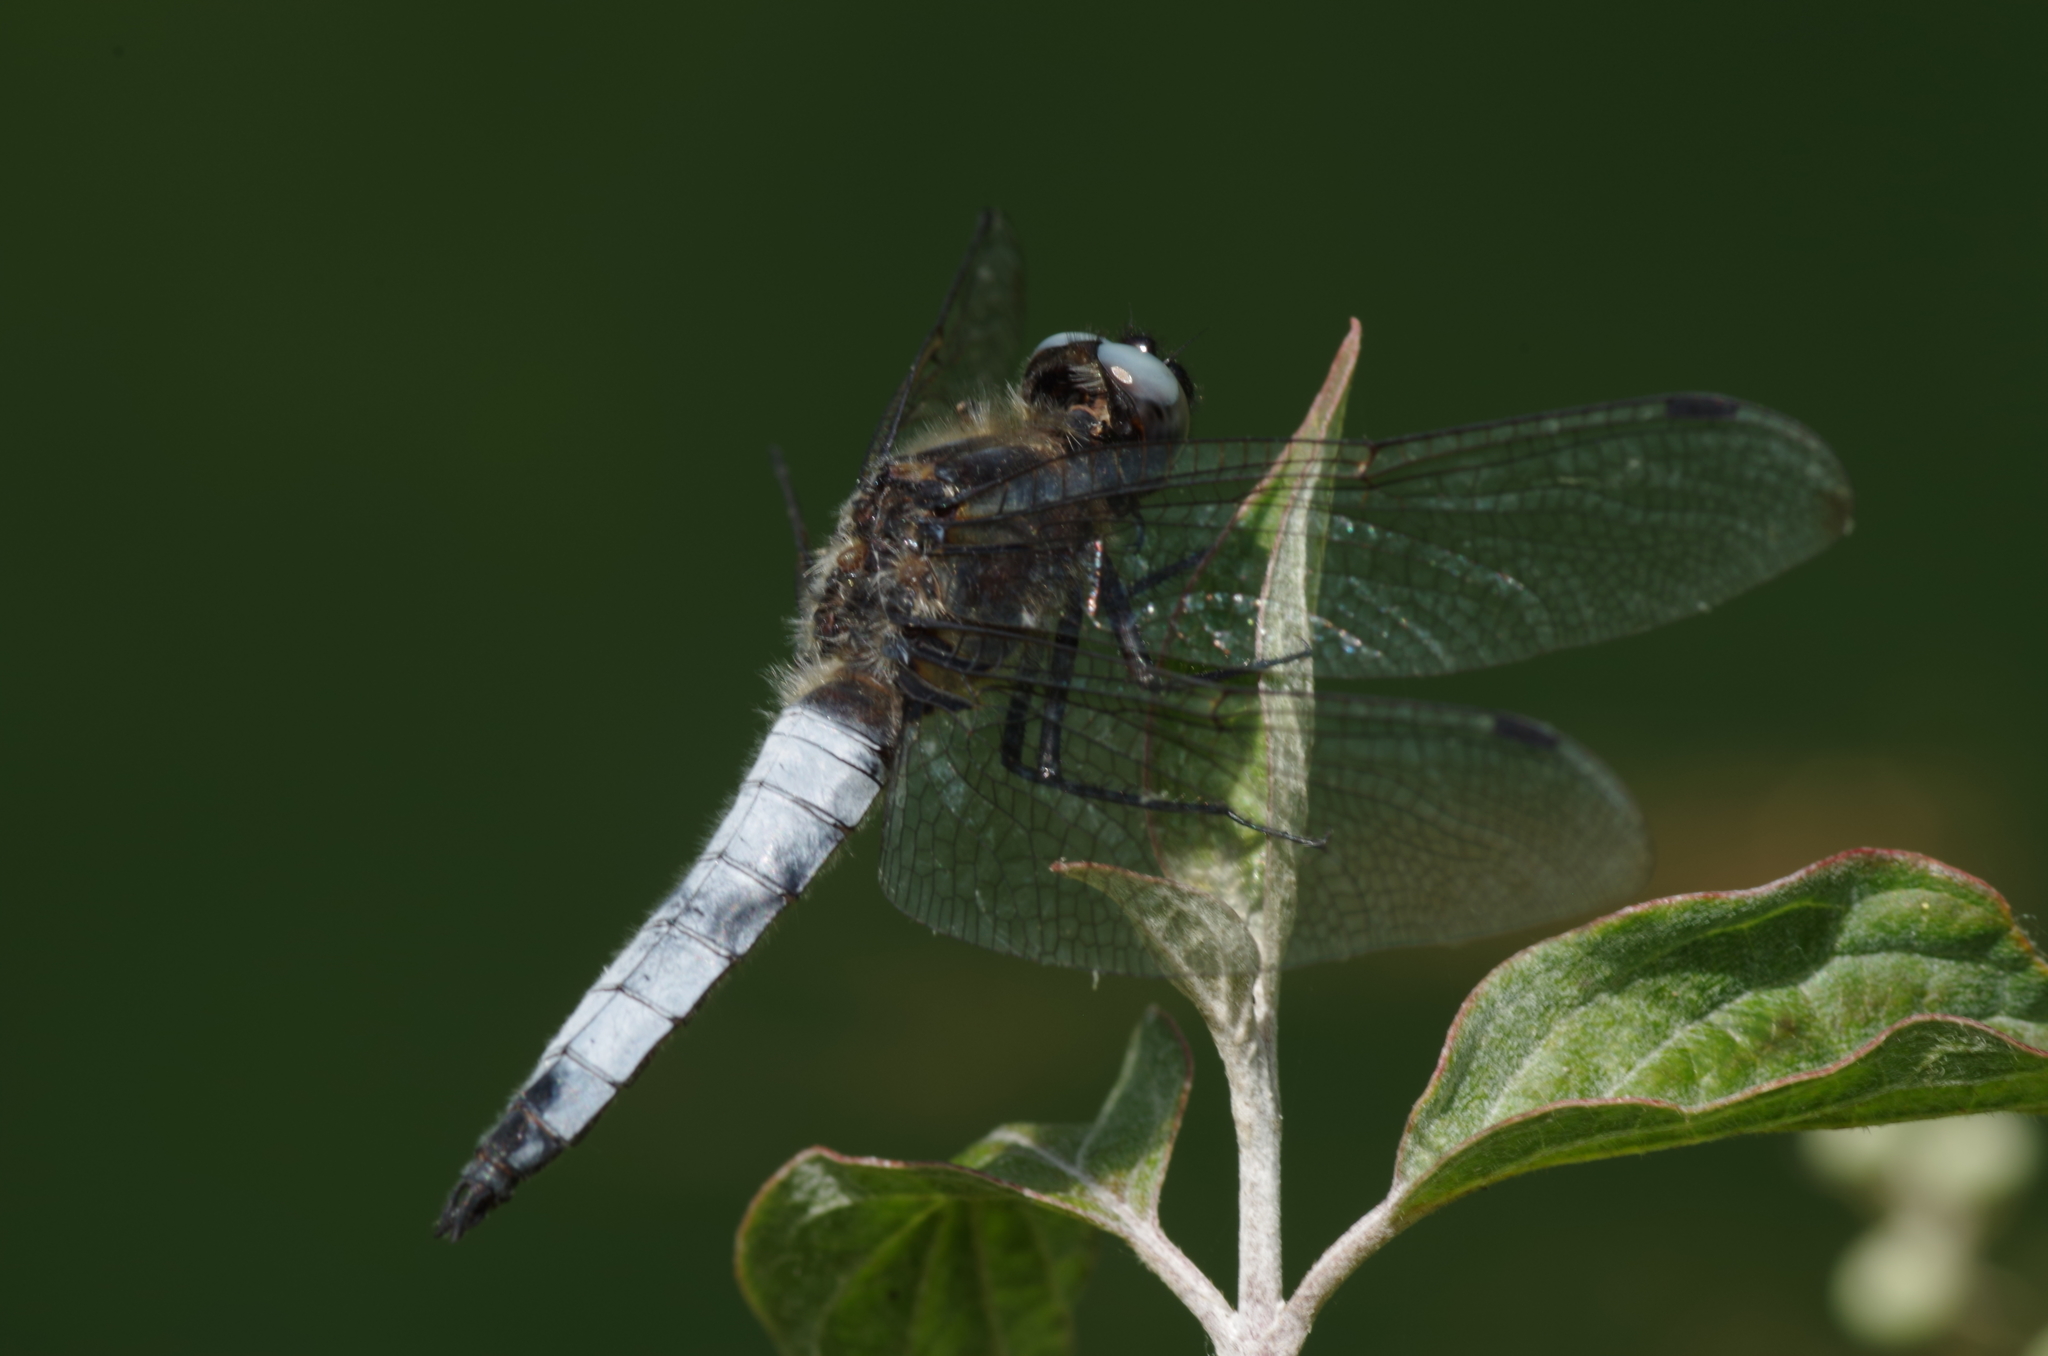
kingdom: Animalia
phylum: Arthropoda
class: Insecta
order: Odonata
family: Libellulidae
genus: Libellula
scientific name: Libellula fulva
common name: Blue chaser
